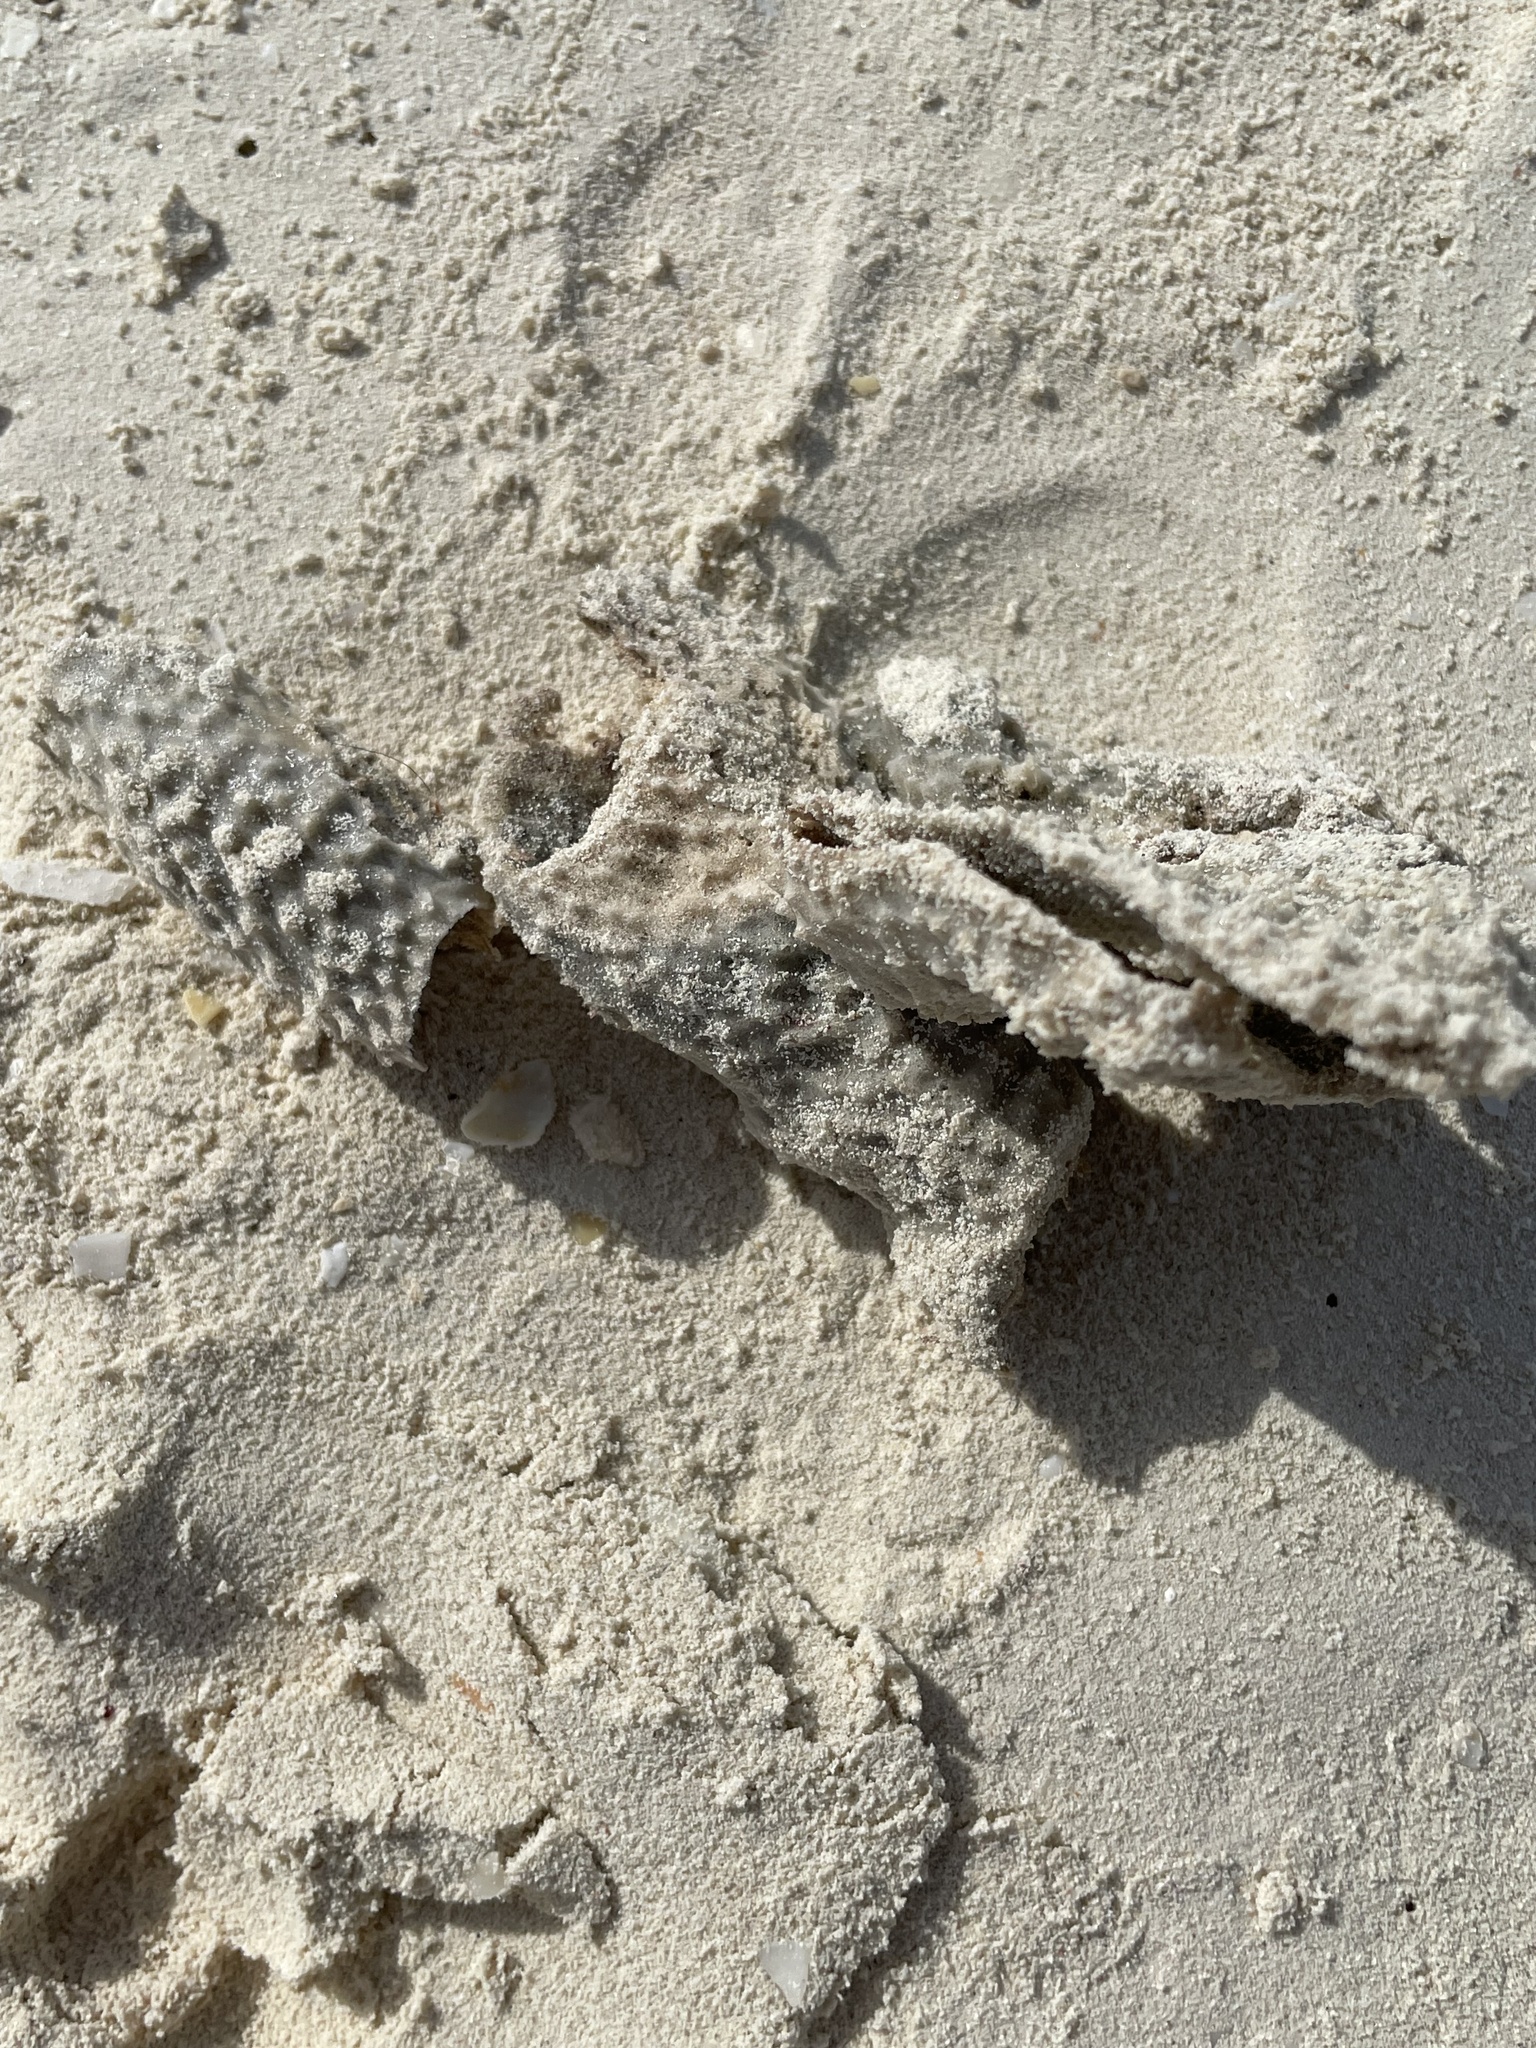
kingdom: Animalia
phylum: Porifera
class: Demospongiae
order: Haplosclerida
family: Callyspongiidae
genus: Callyspongia
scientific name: Callyspongia aculeata
